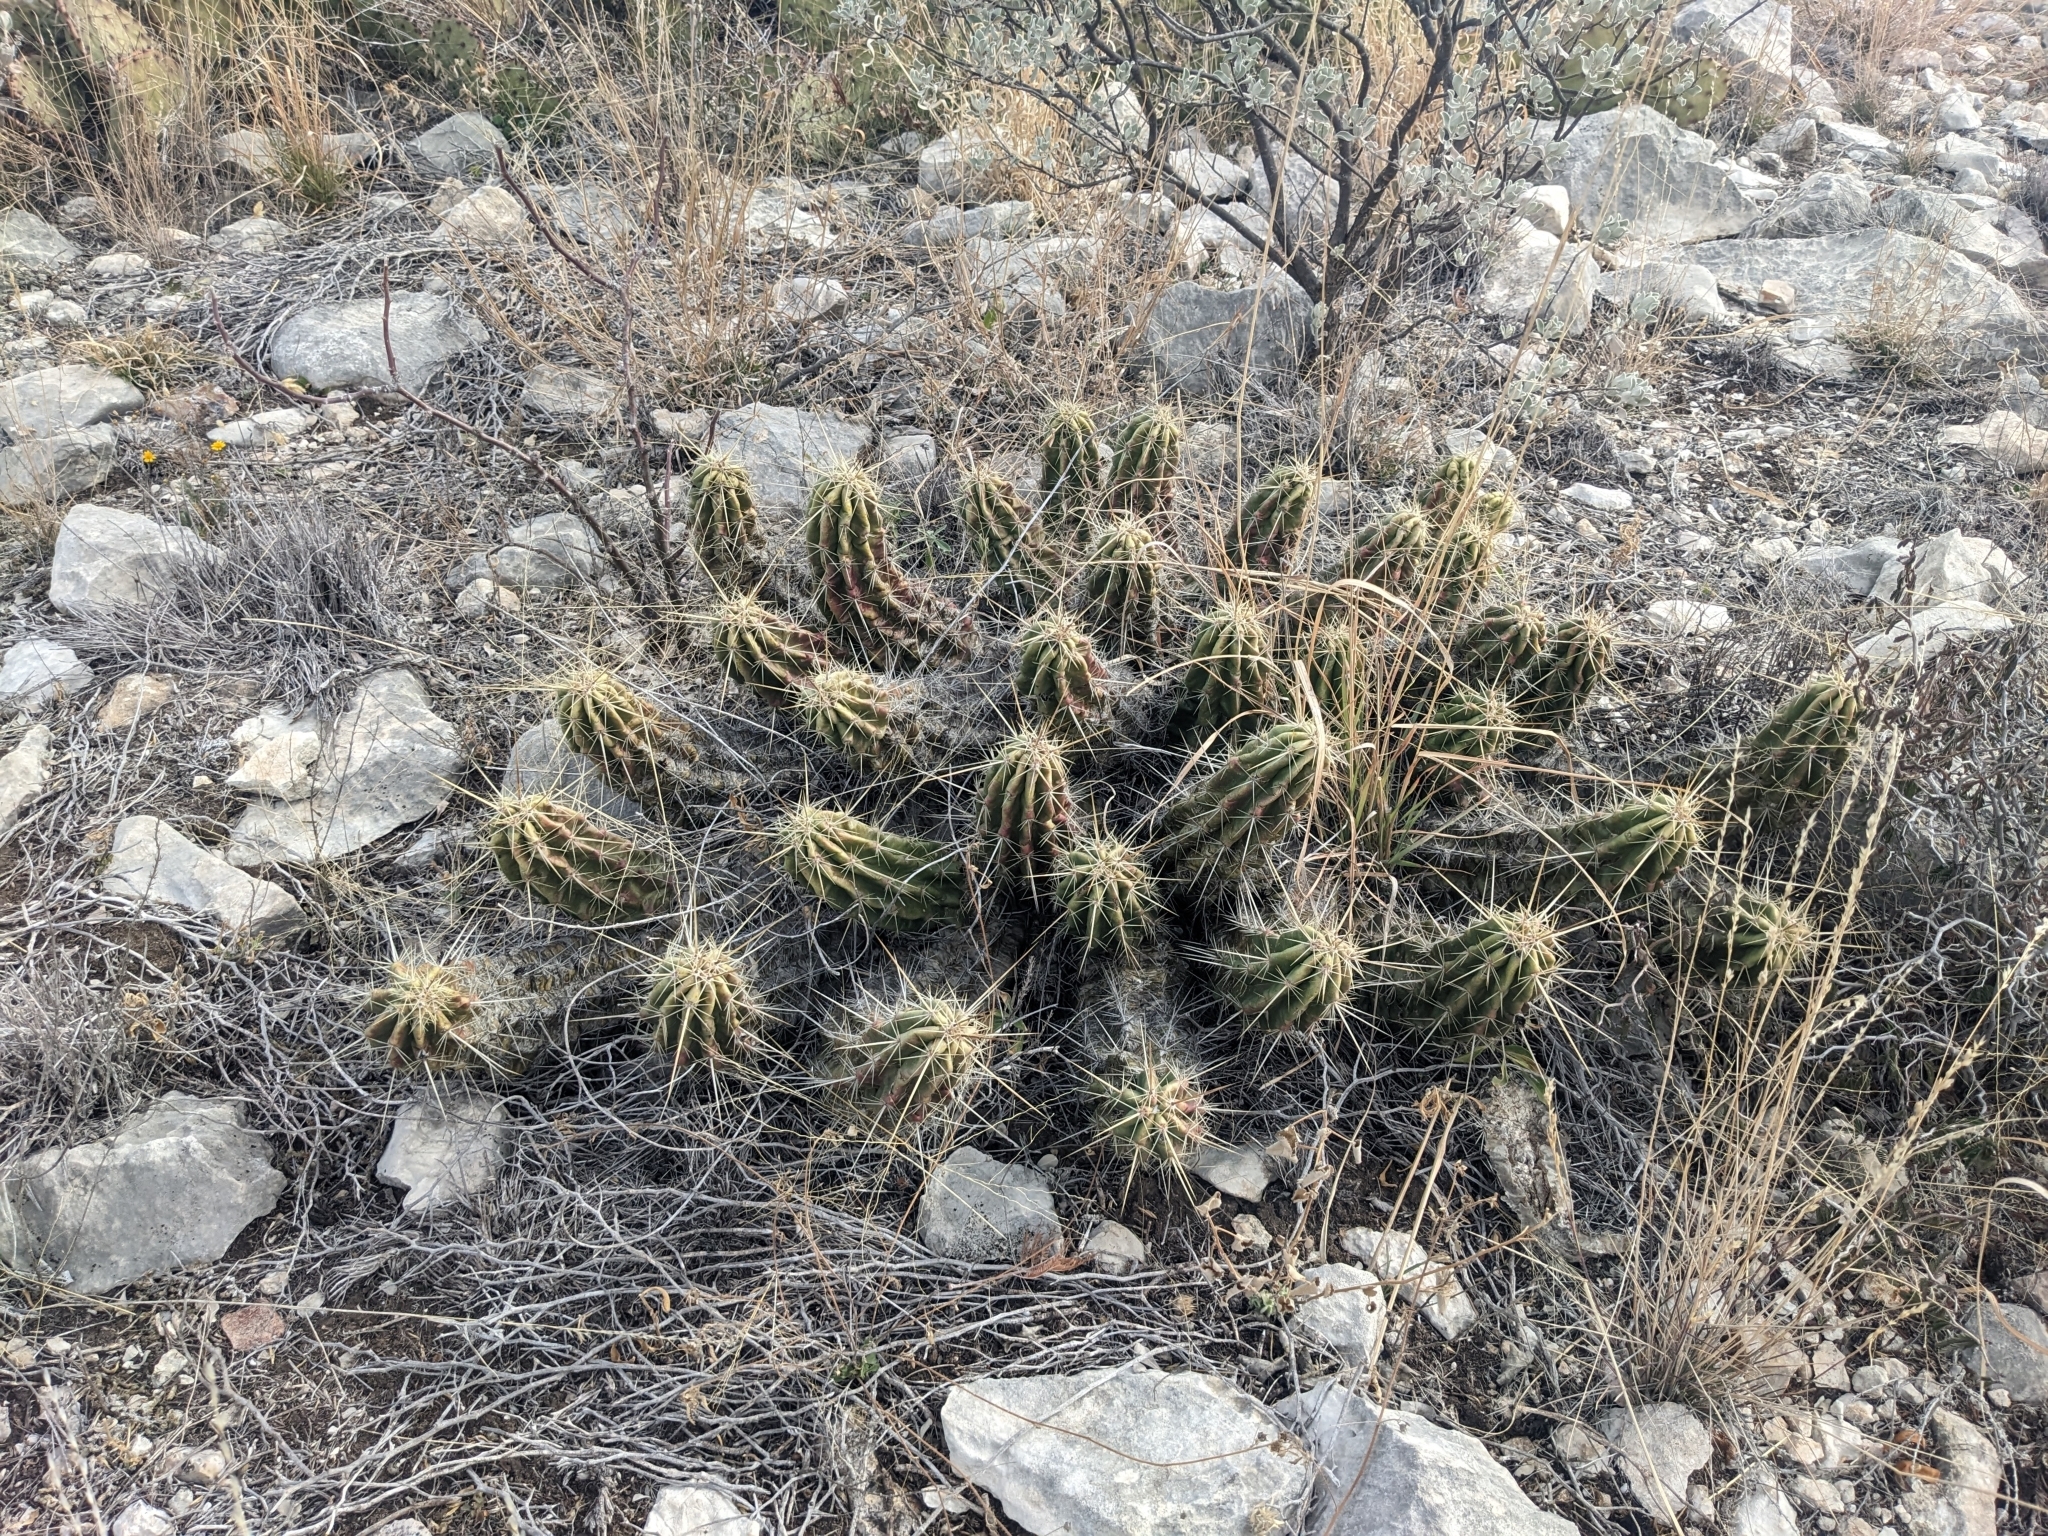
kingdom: Plantae
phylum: Tracheophyta
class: Magnoliopsida
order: Caryophyllales
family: Cactaceae
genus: Echinocereus
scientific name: Echinocereus enneacanthus
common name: Pitaya
